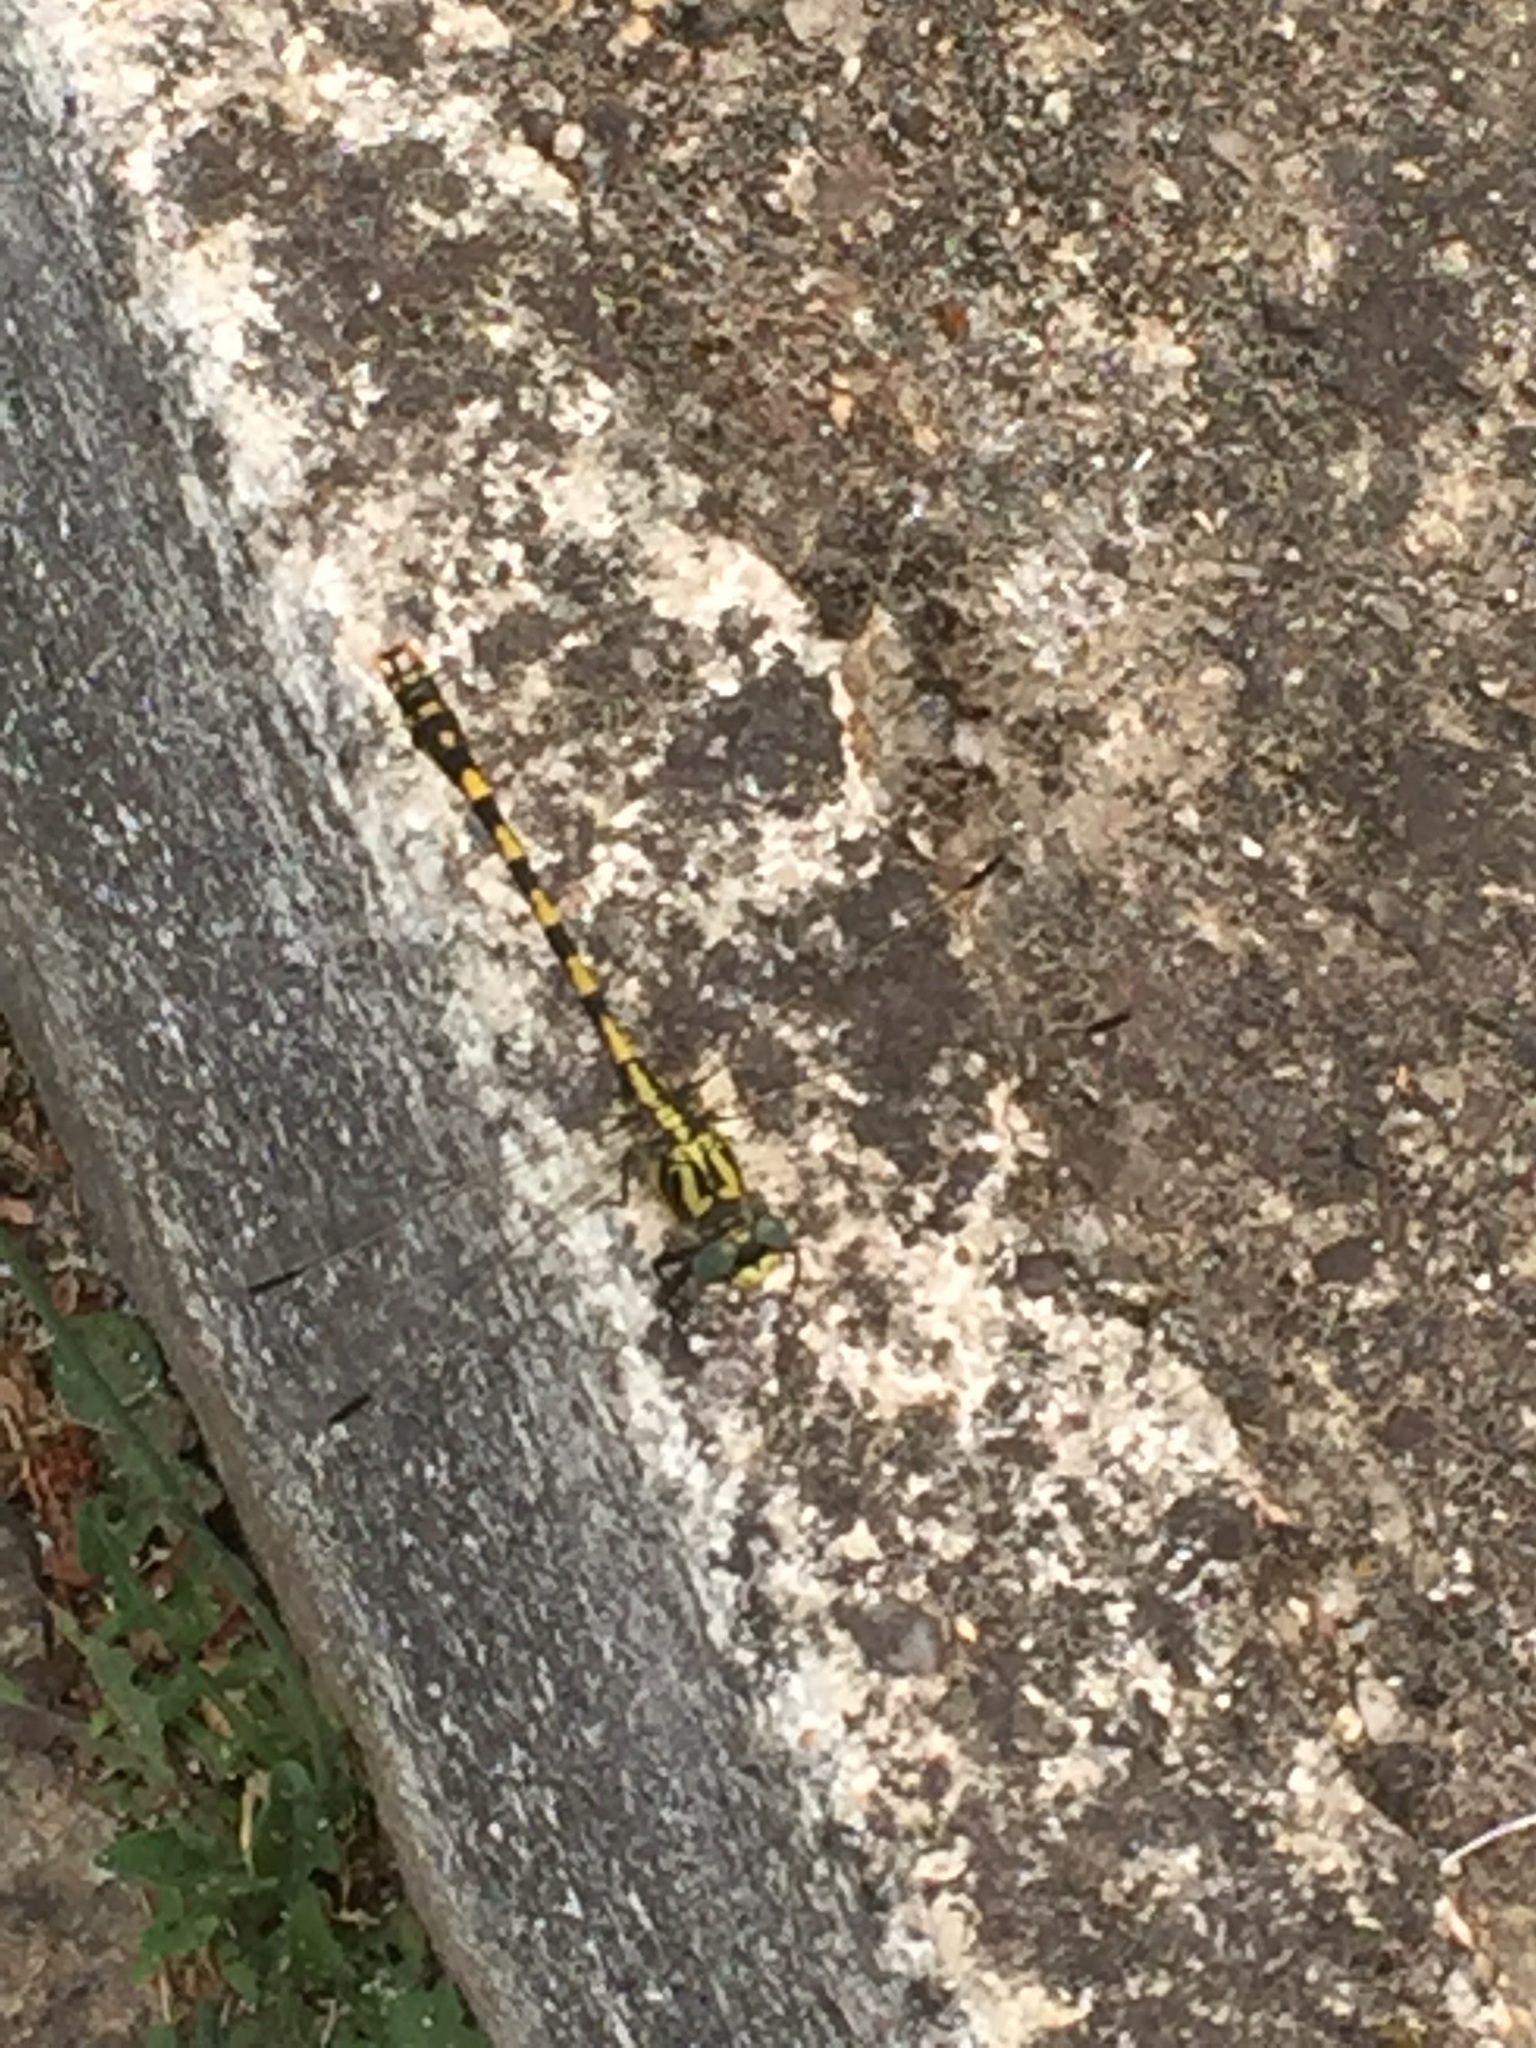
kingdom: Animalia
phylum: Arthropoda
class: Insecta
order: Odonata
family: Gomphidae
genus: Onychogomphus
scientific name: Onychogomphus uncatus
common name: Large pincertail
